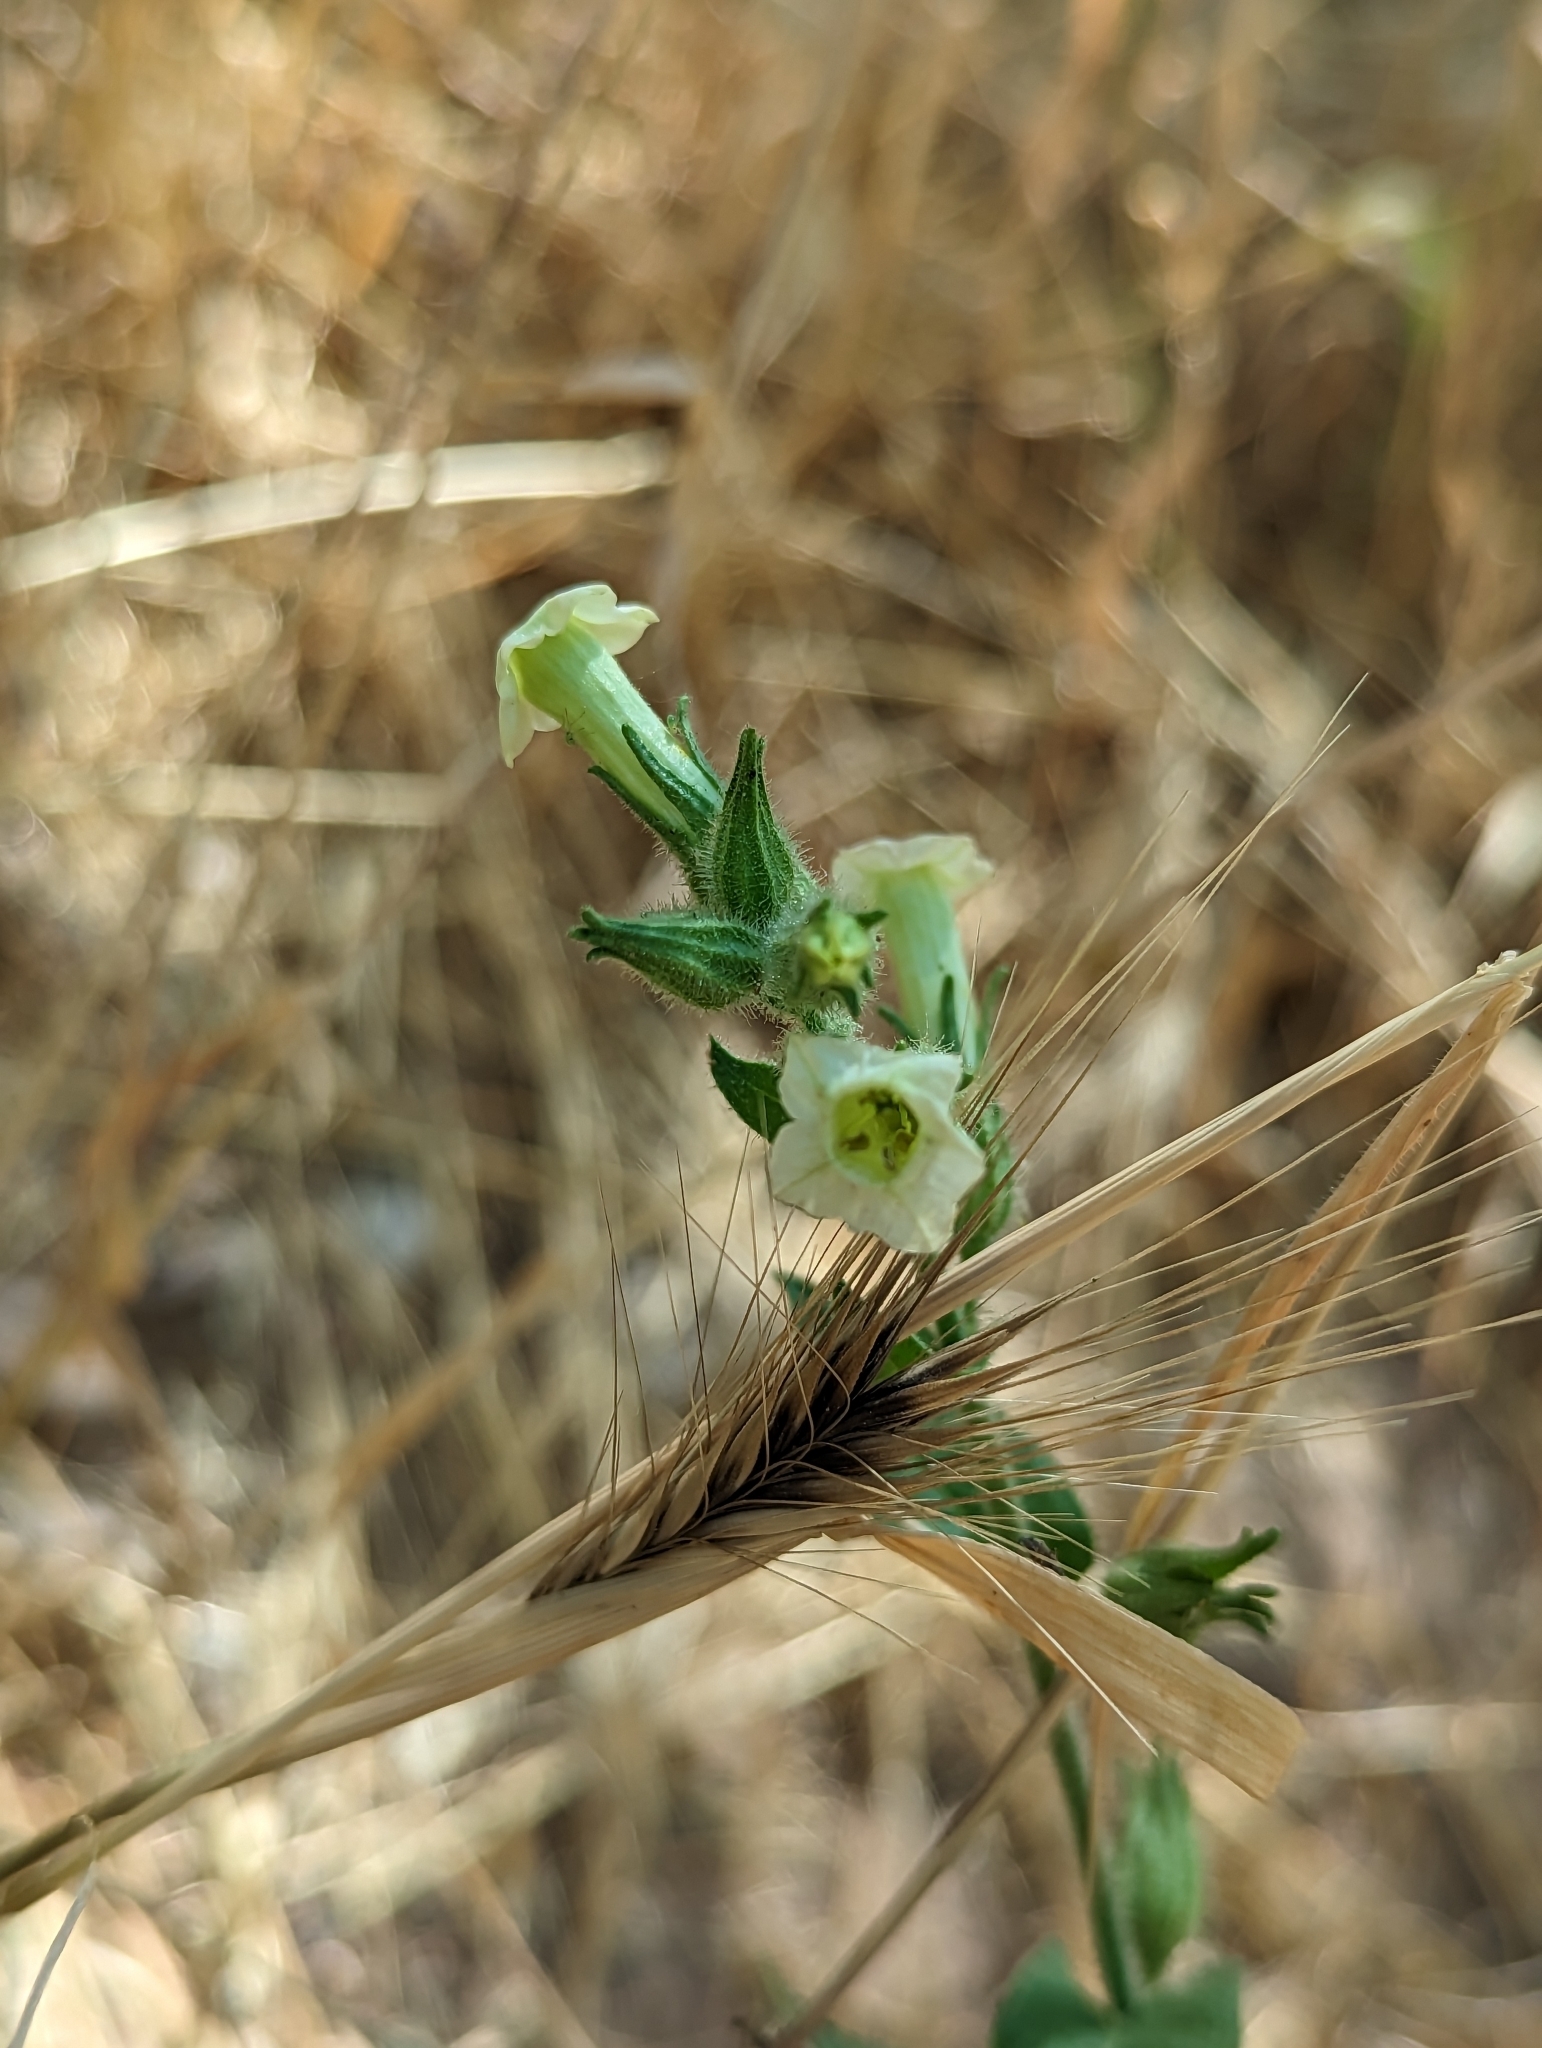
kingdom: Plantae
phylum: Tracheophyta
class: Magnoliopsida
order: Solanales
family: Solanaceae
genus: Nicotiana
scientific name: Nicotiana obtusifolia
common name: Desert tobacco
